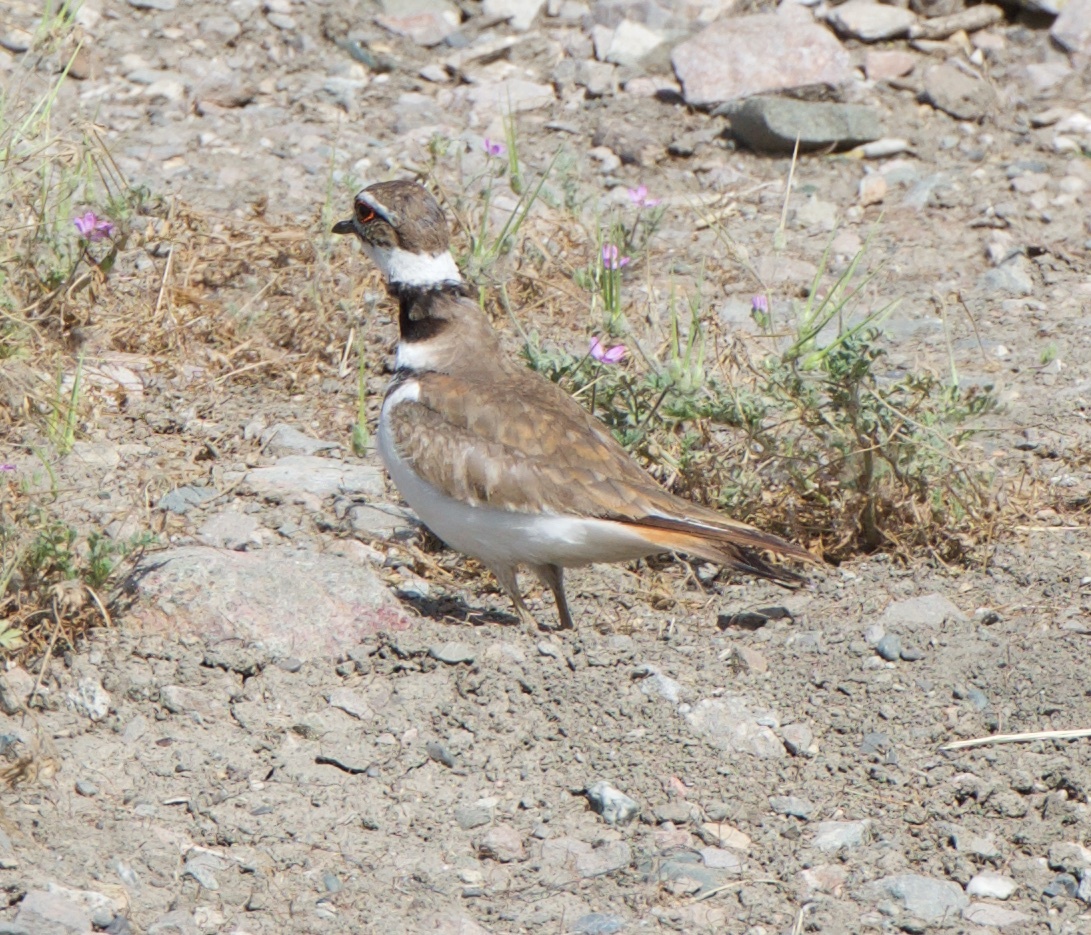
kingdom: Animalia
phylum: Chordata
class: Aves
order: Charadriiformes
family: Charadriidae
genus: Charadrius
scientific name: Charadrius vociferus
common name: Killdeer
